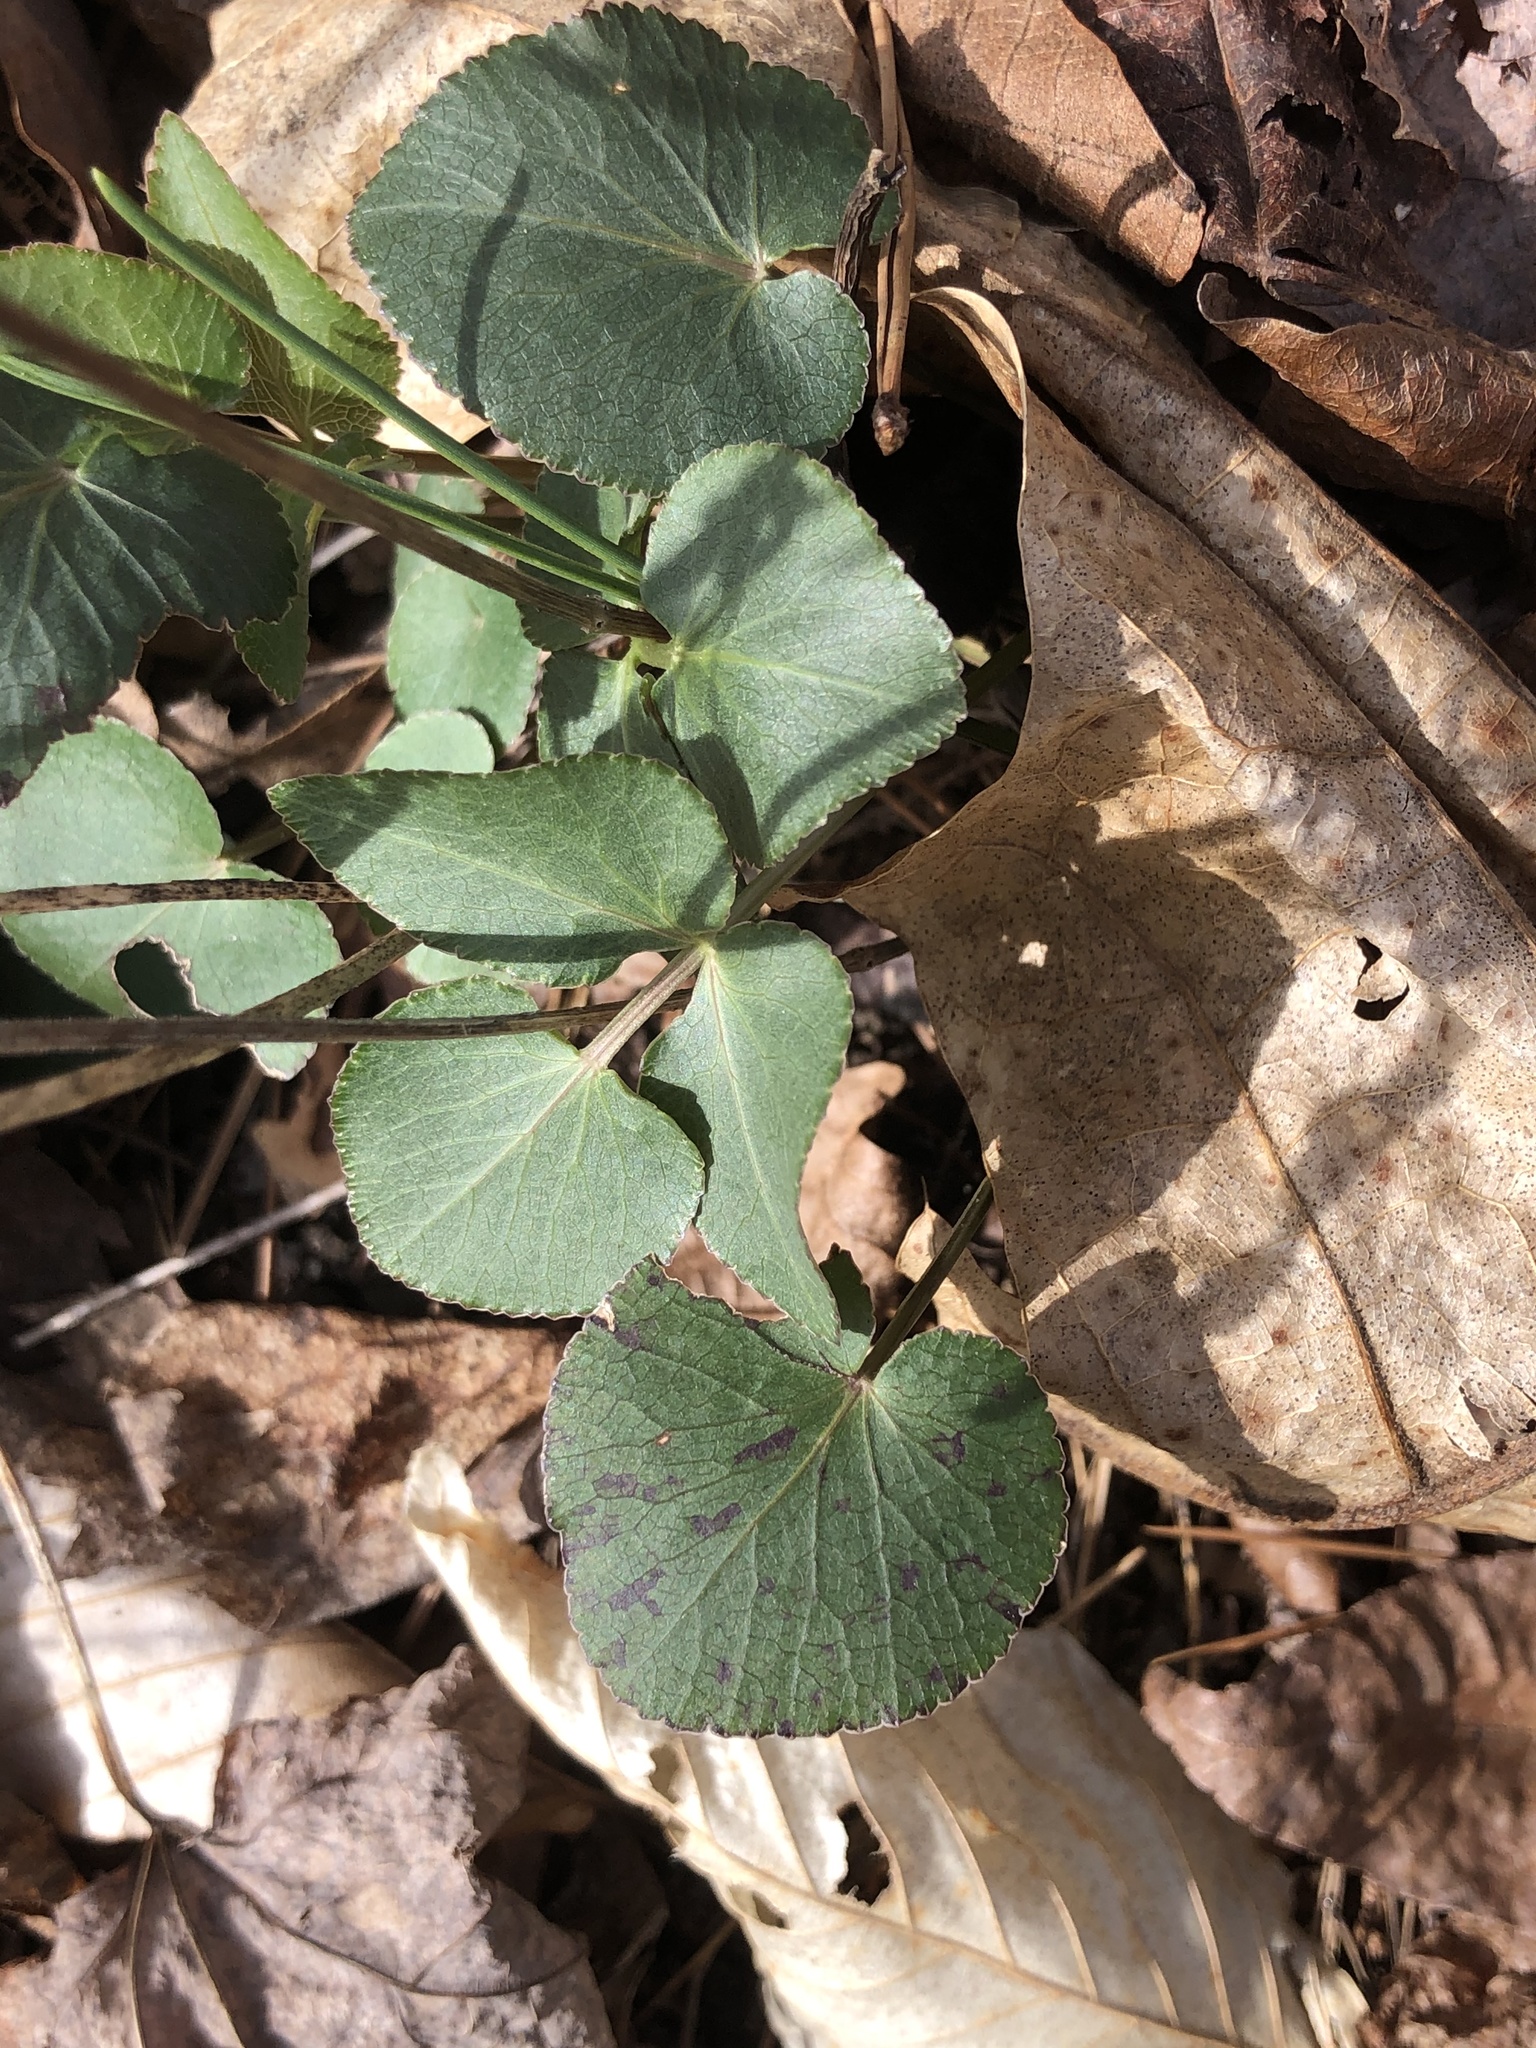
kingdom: Plantae
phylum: Tracheophyta
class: Magnoliopsida
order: Apiales
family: Apiaceae
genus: Thaspium
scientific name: Thaspium trifoliatum
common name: Purple meadow-parsnip
